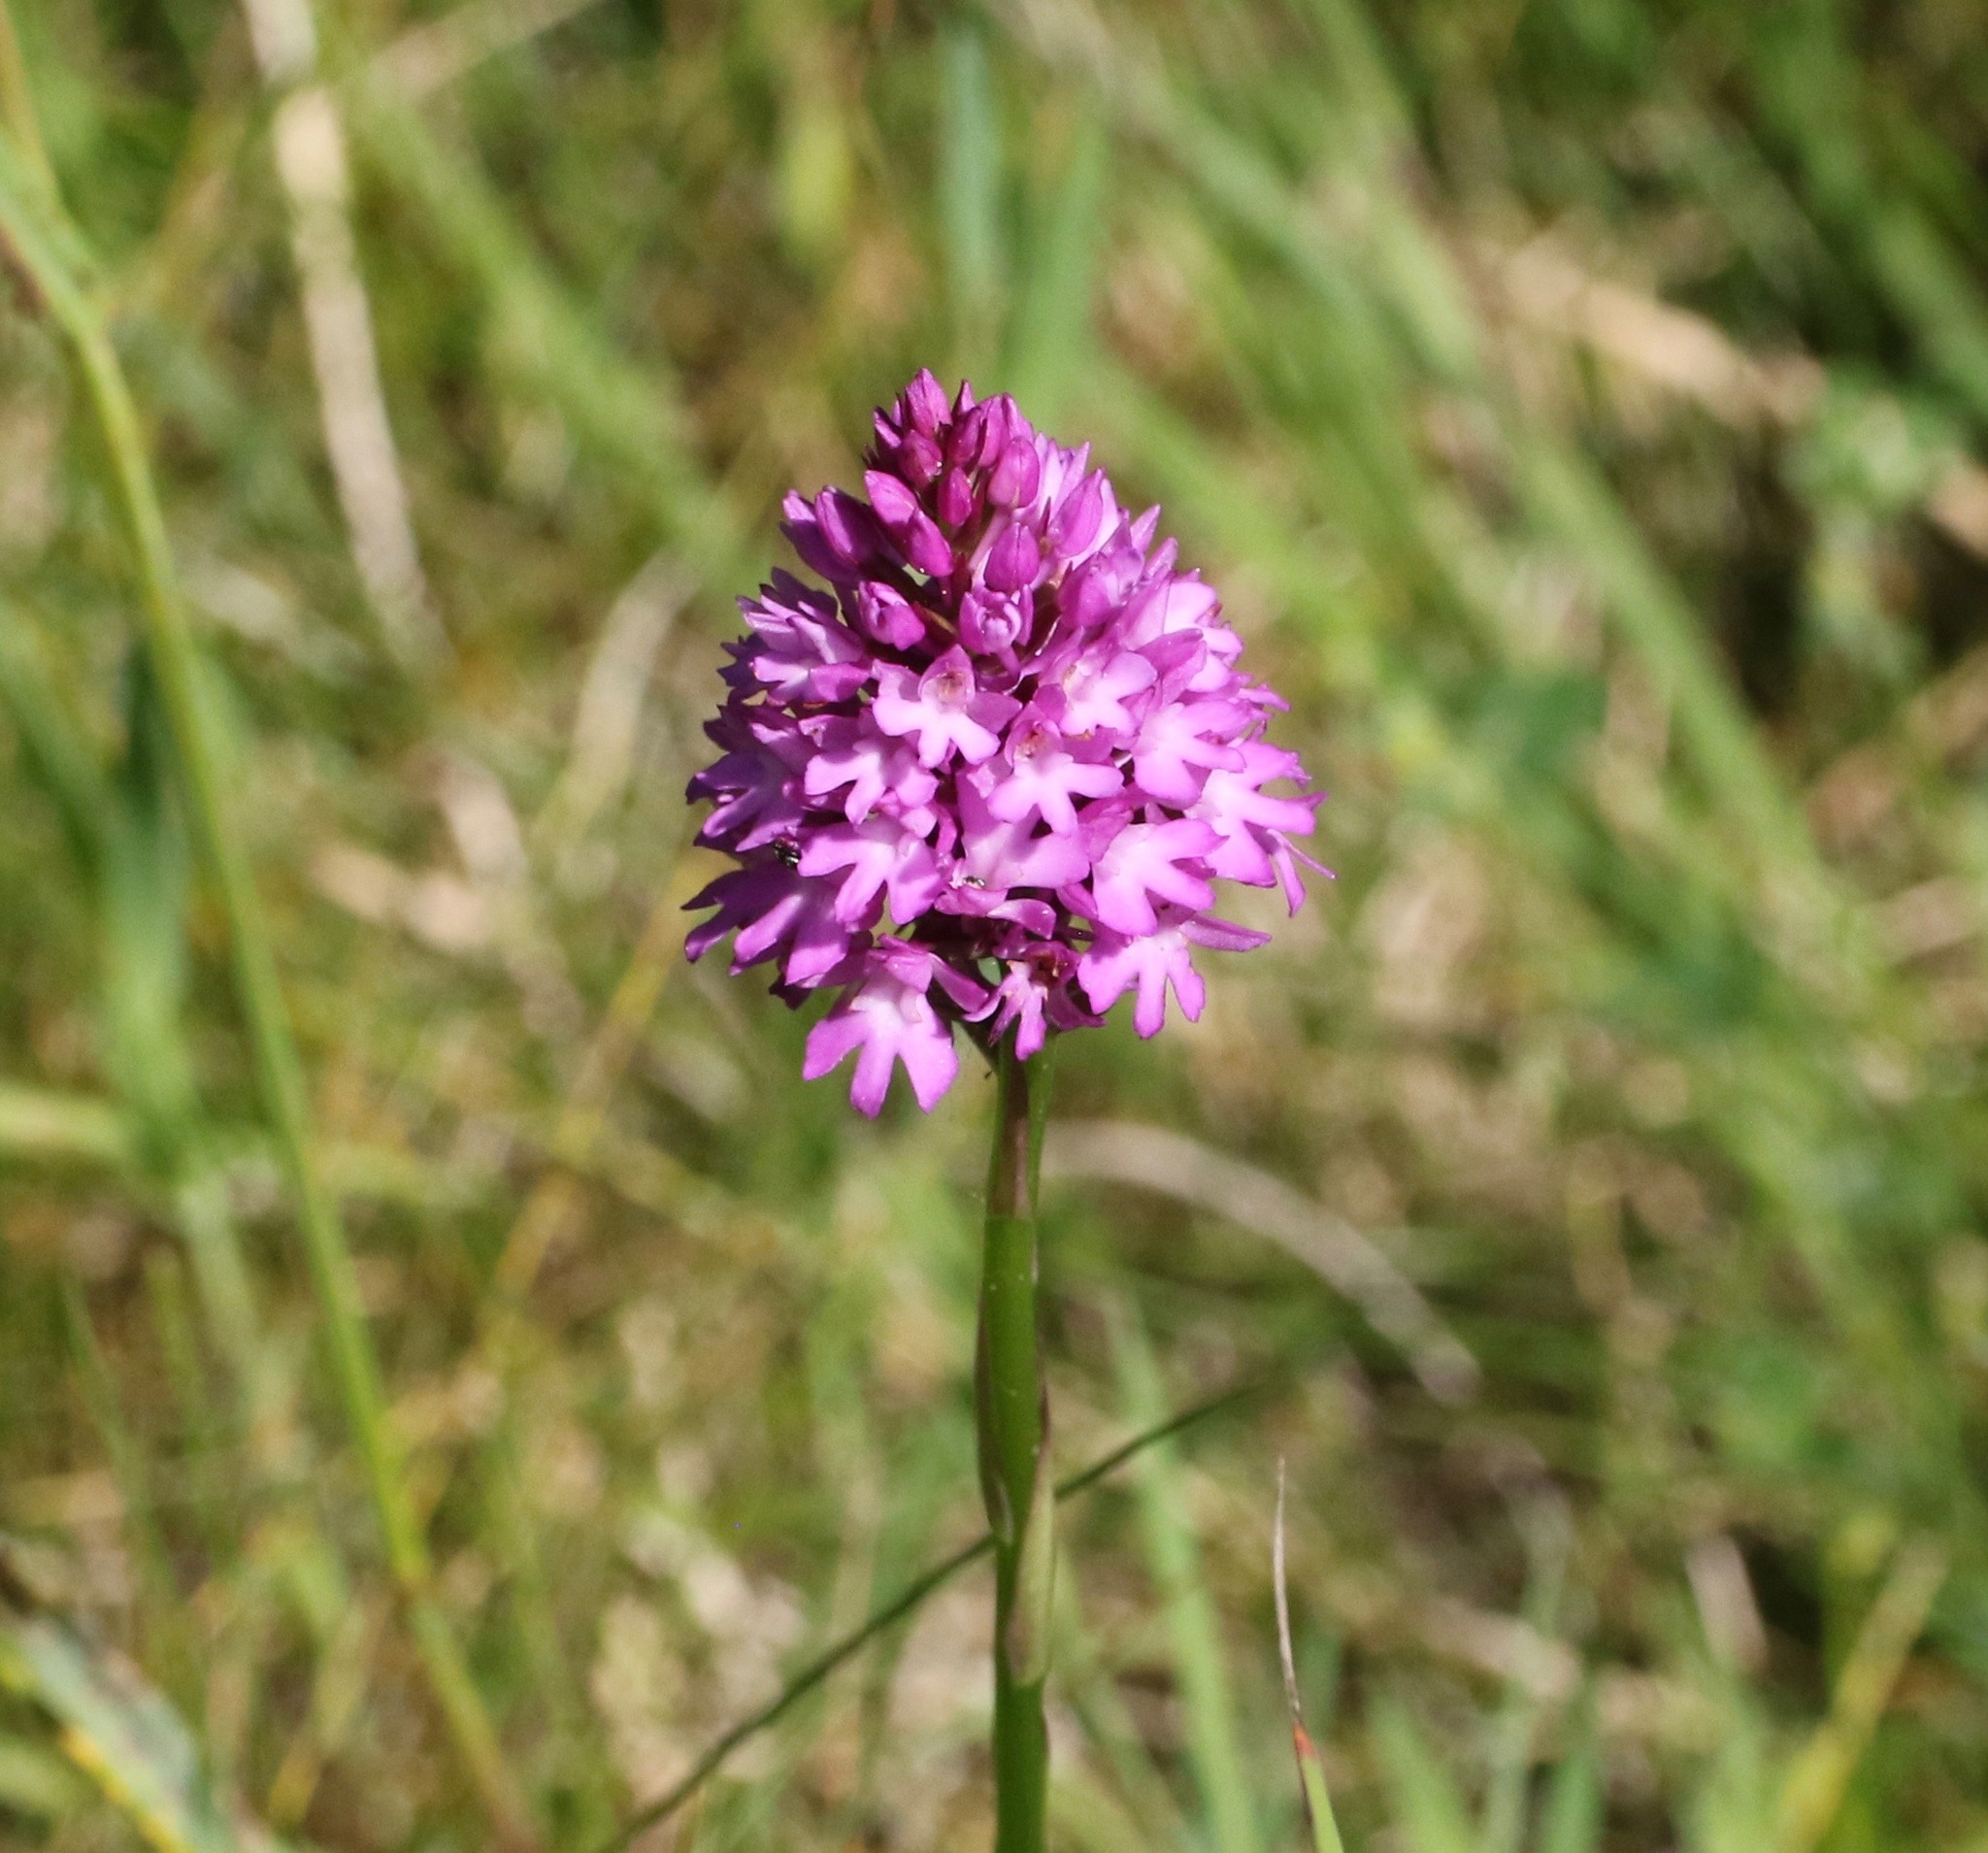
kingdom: Plantae
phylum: Tracheophyta
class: Liliopsida
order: Asparagales
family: Orchidaceae
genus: Anacamptis
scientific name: Anacamptis pyramidalis
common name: Pyramidal orchid
